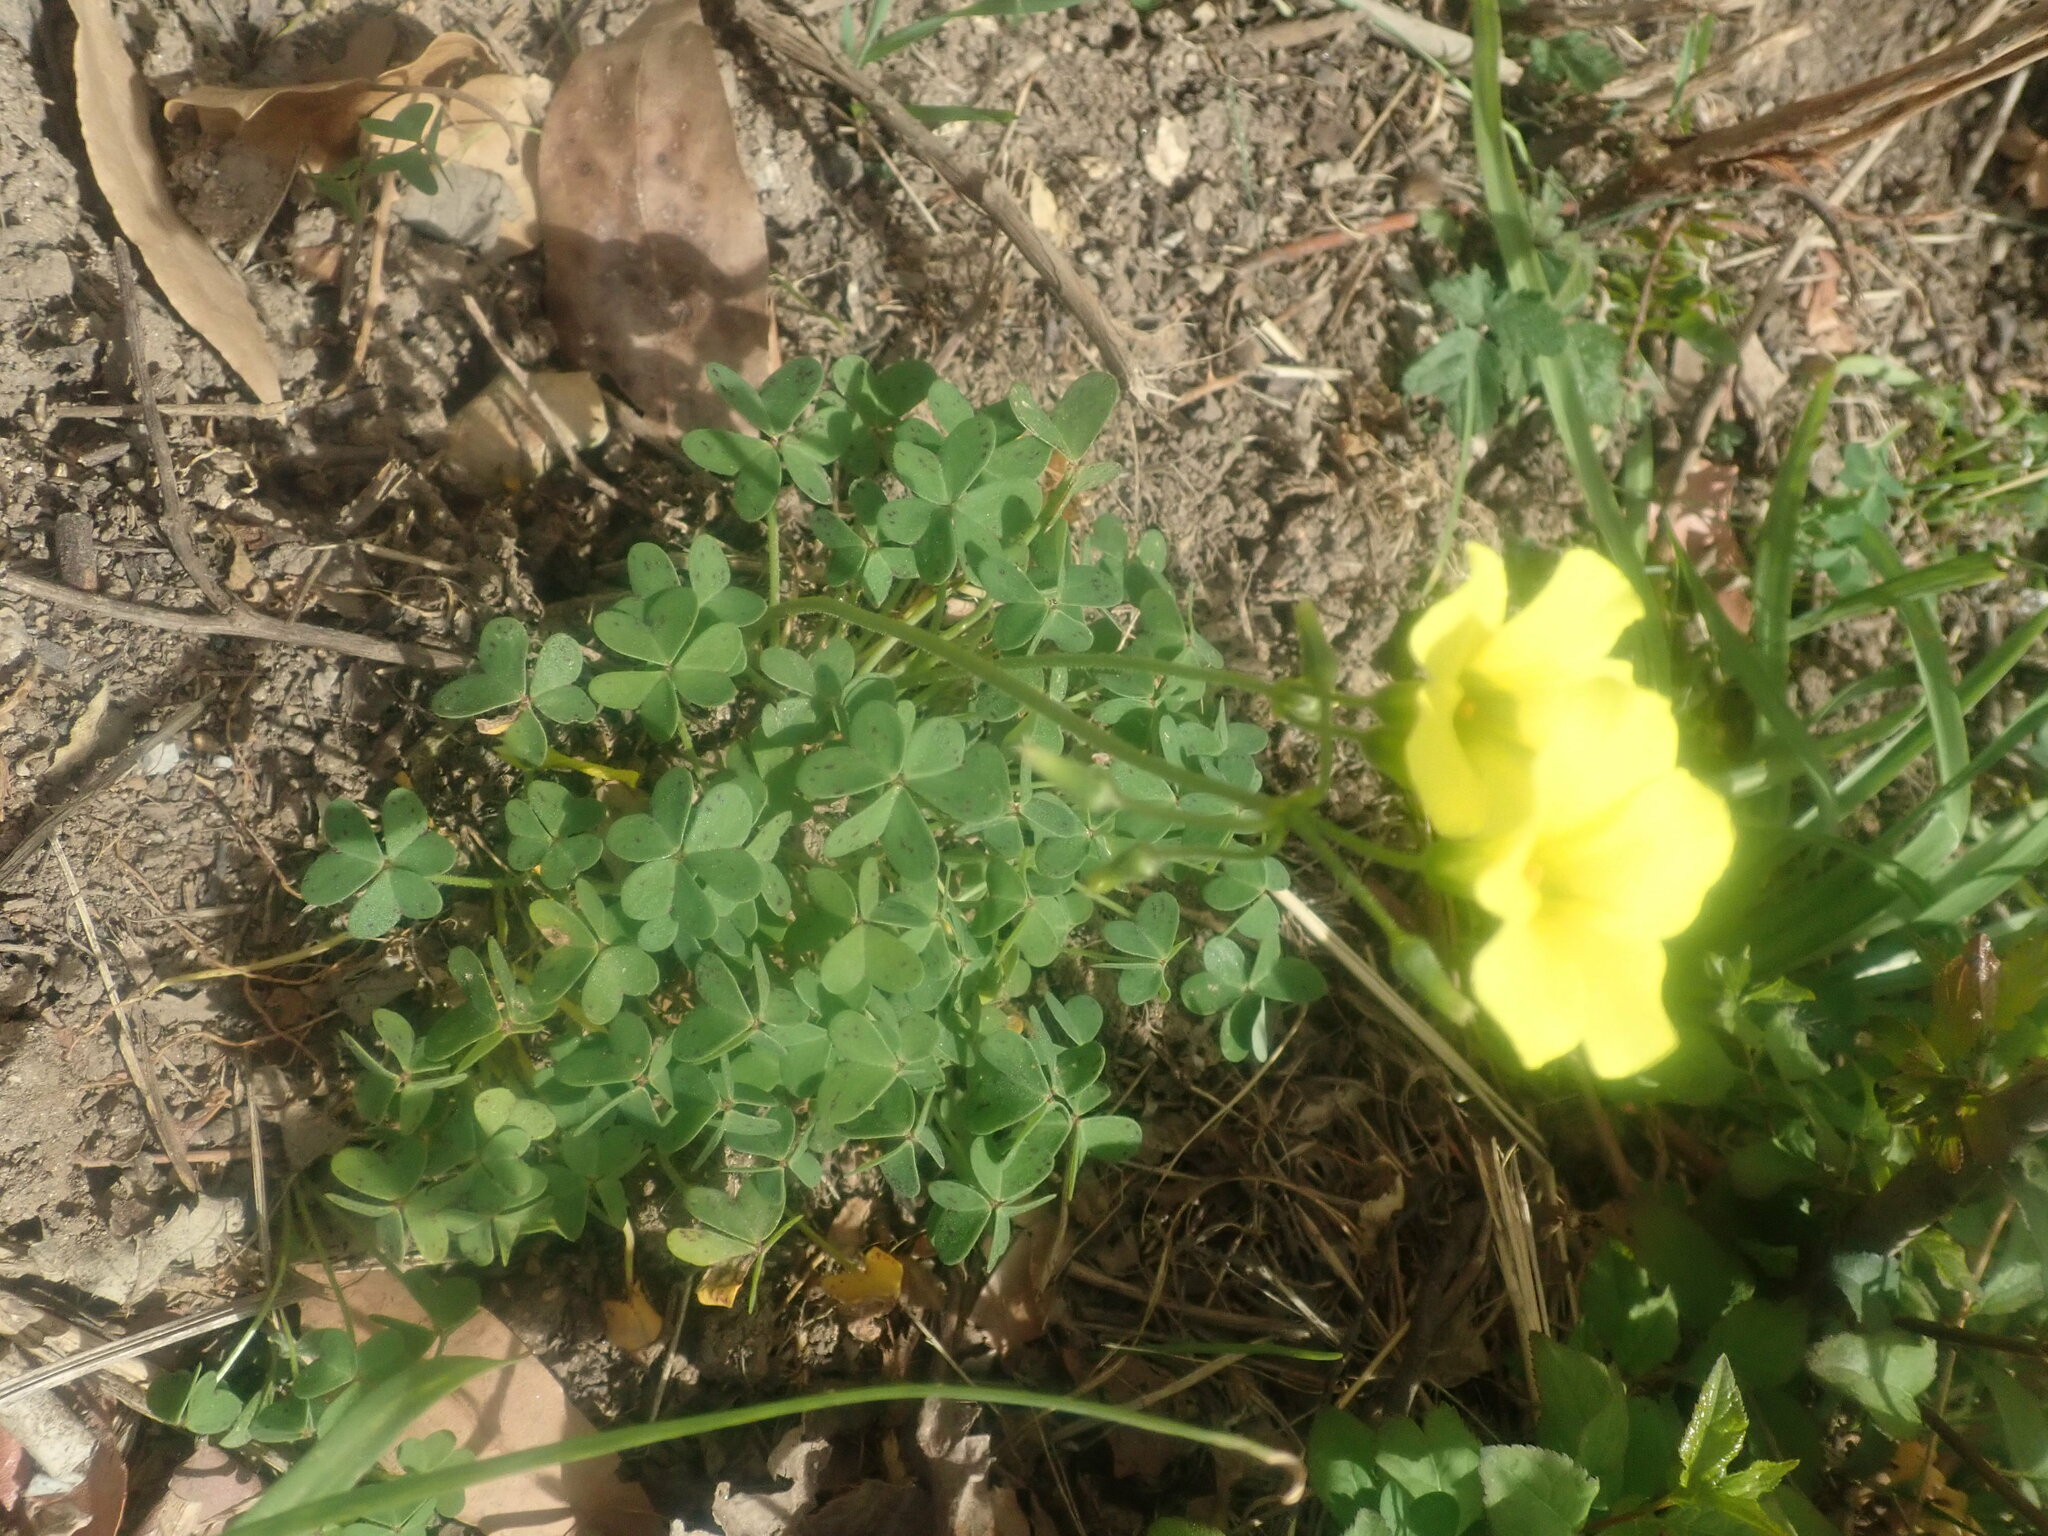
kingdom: Plantae
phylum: Tracheophyta
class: Magnoliopsida
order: Oxalidales
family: Oxalidaceae
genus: Oxalis
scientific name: Oxalis pes-caprae
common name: Bermuda-buttercup
